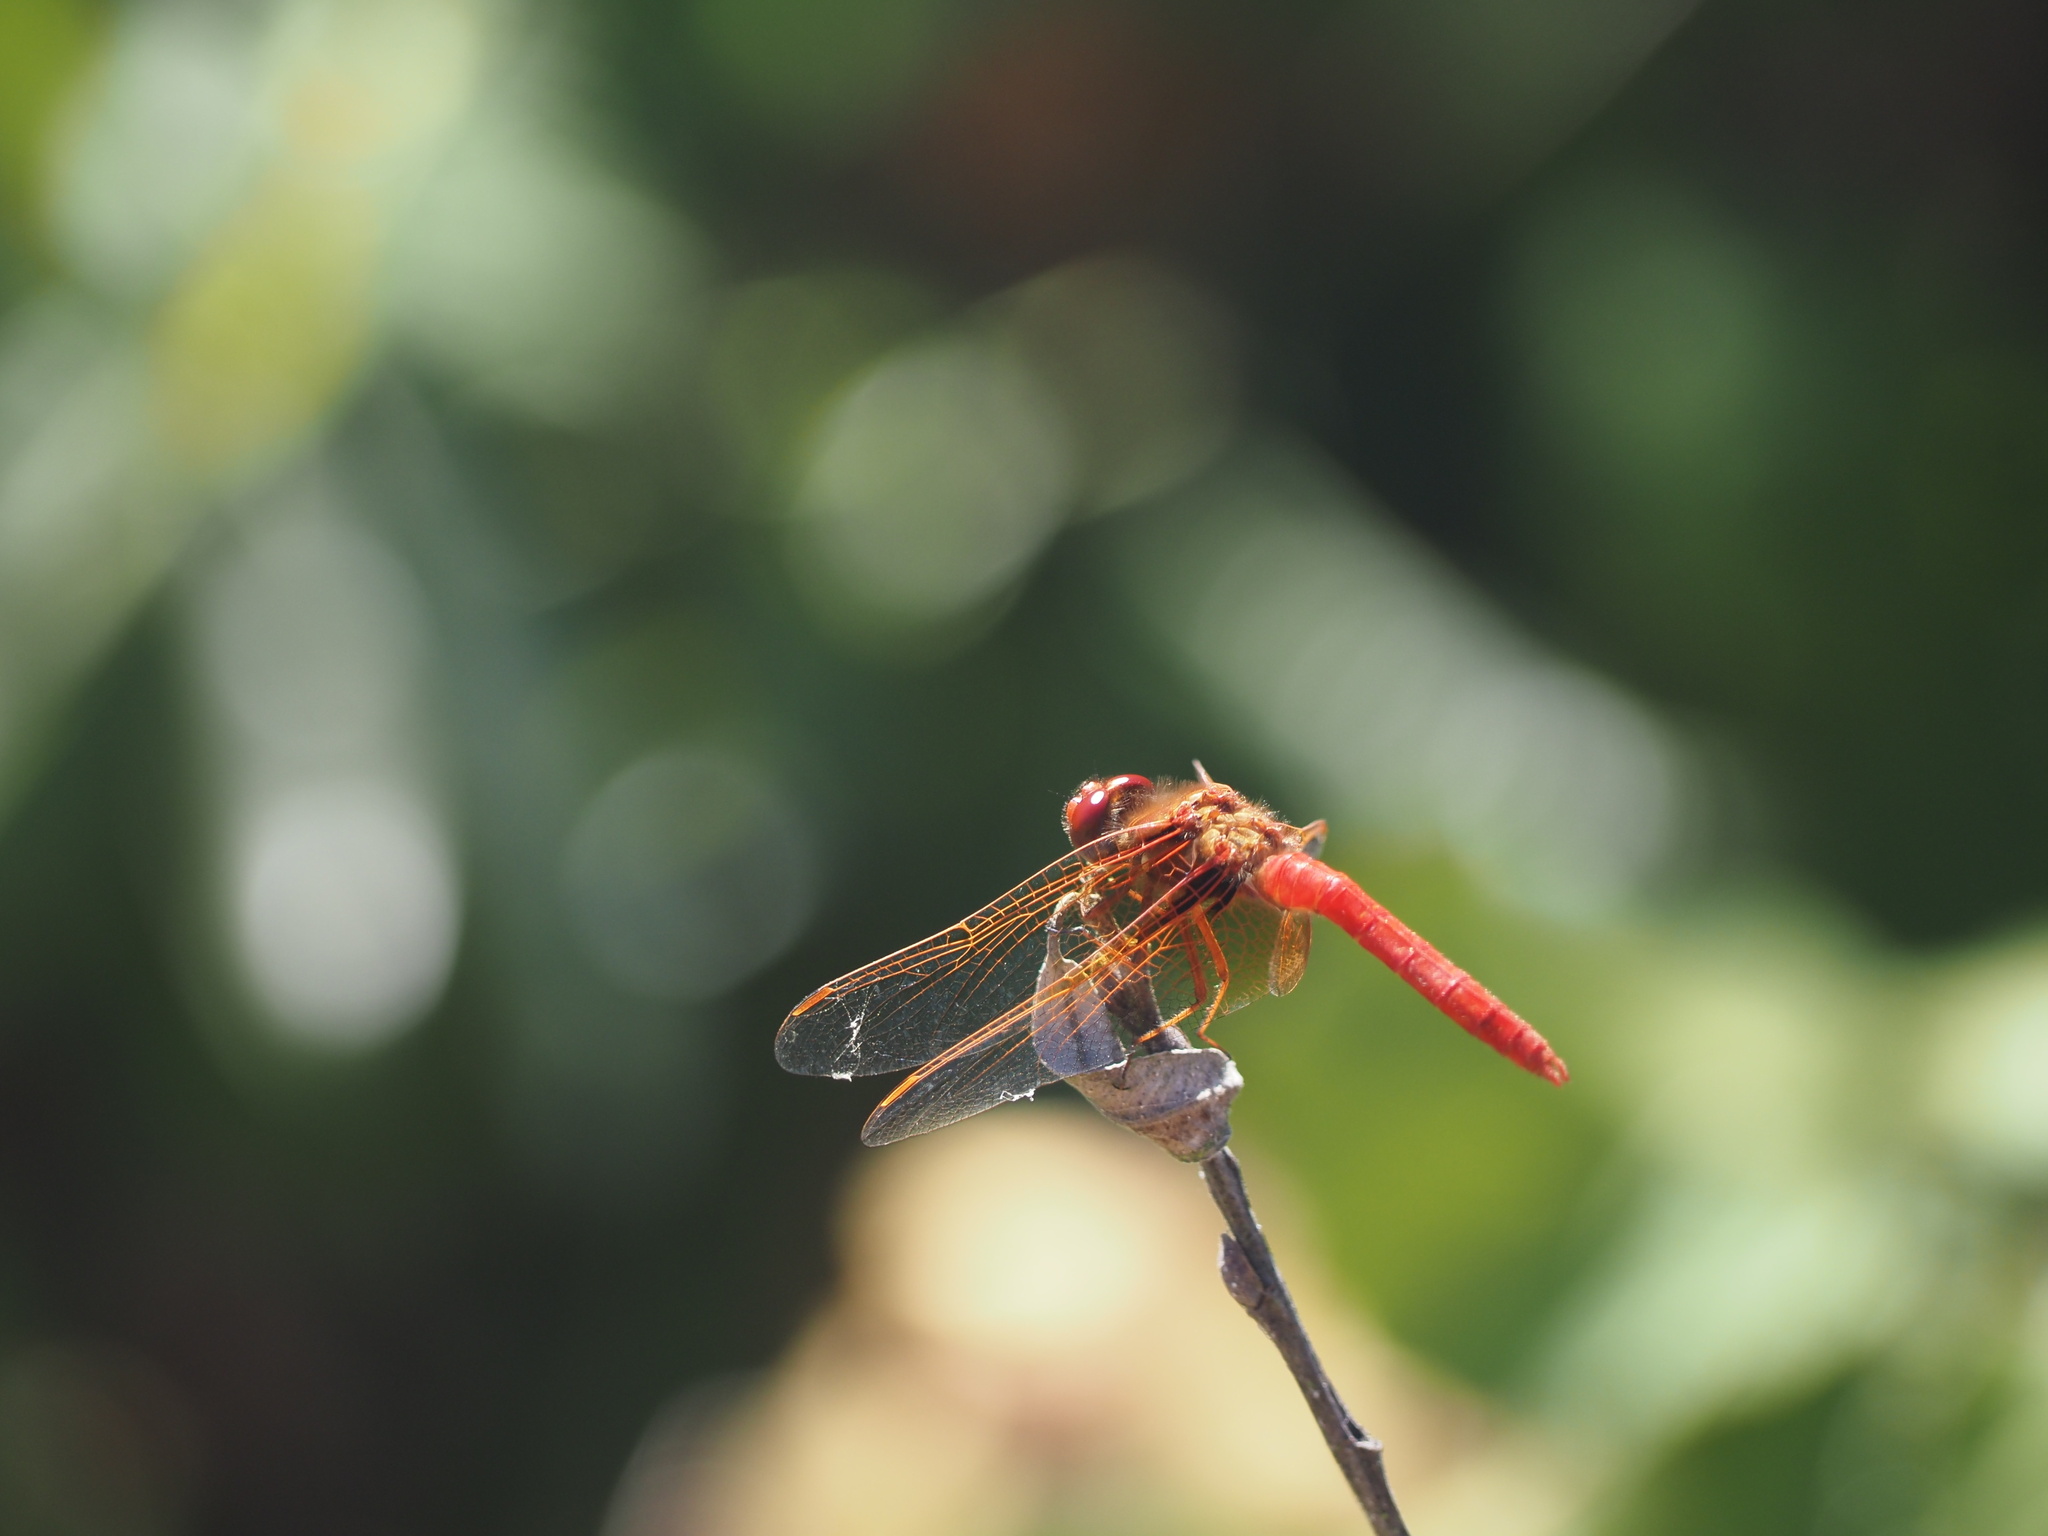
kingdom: Animalia
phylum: Arthropoda
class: Insecta
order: Odonata
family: Libellulidae
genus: Sympetrum
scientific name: Sympetrum illotum
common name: Cardinal meadowhawk
